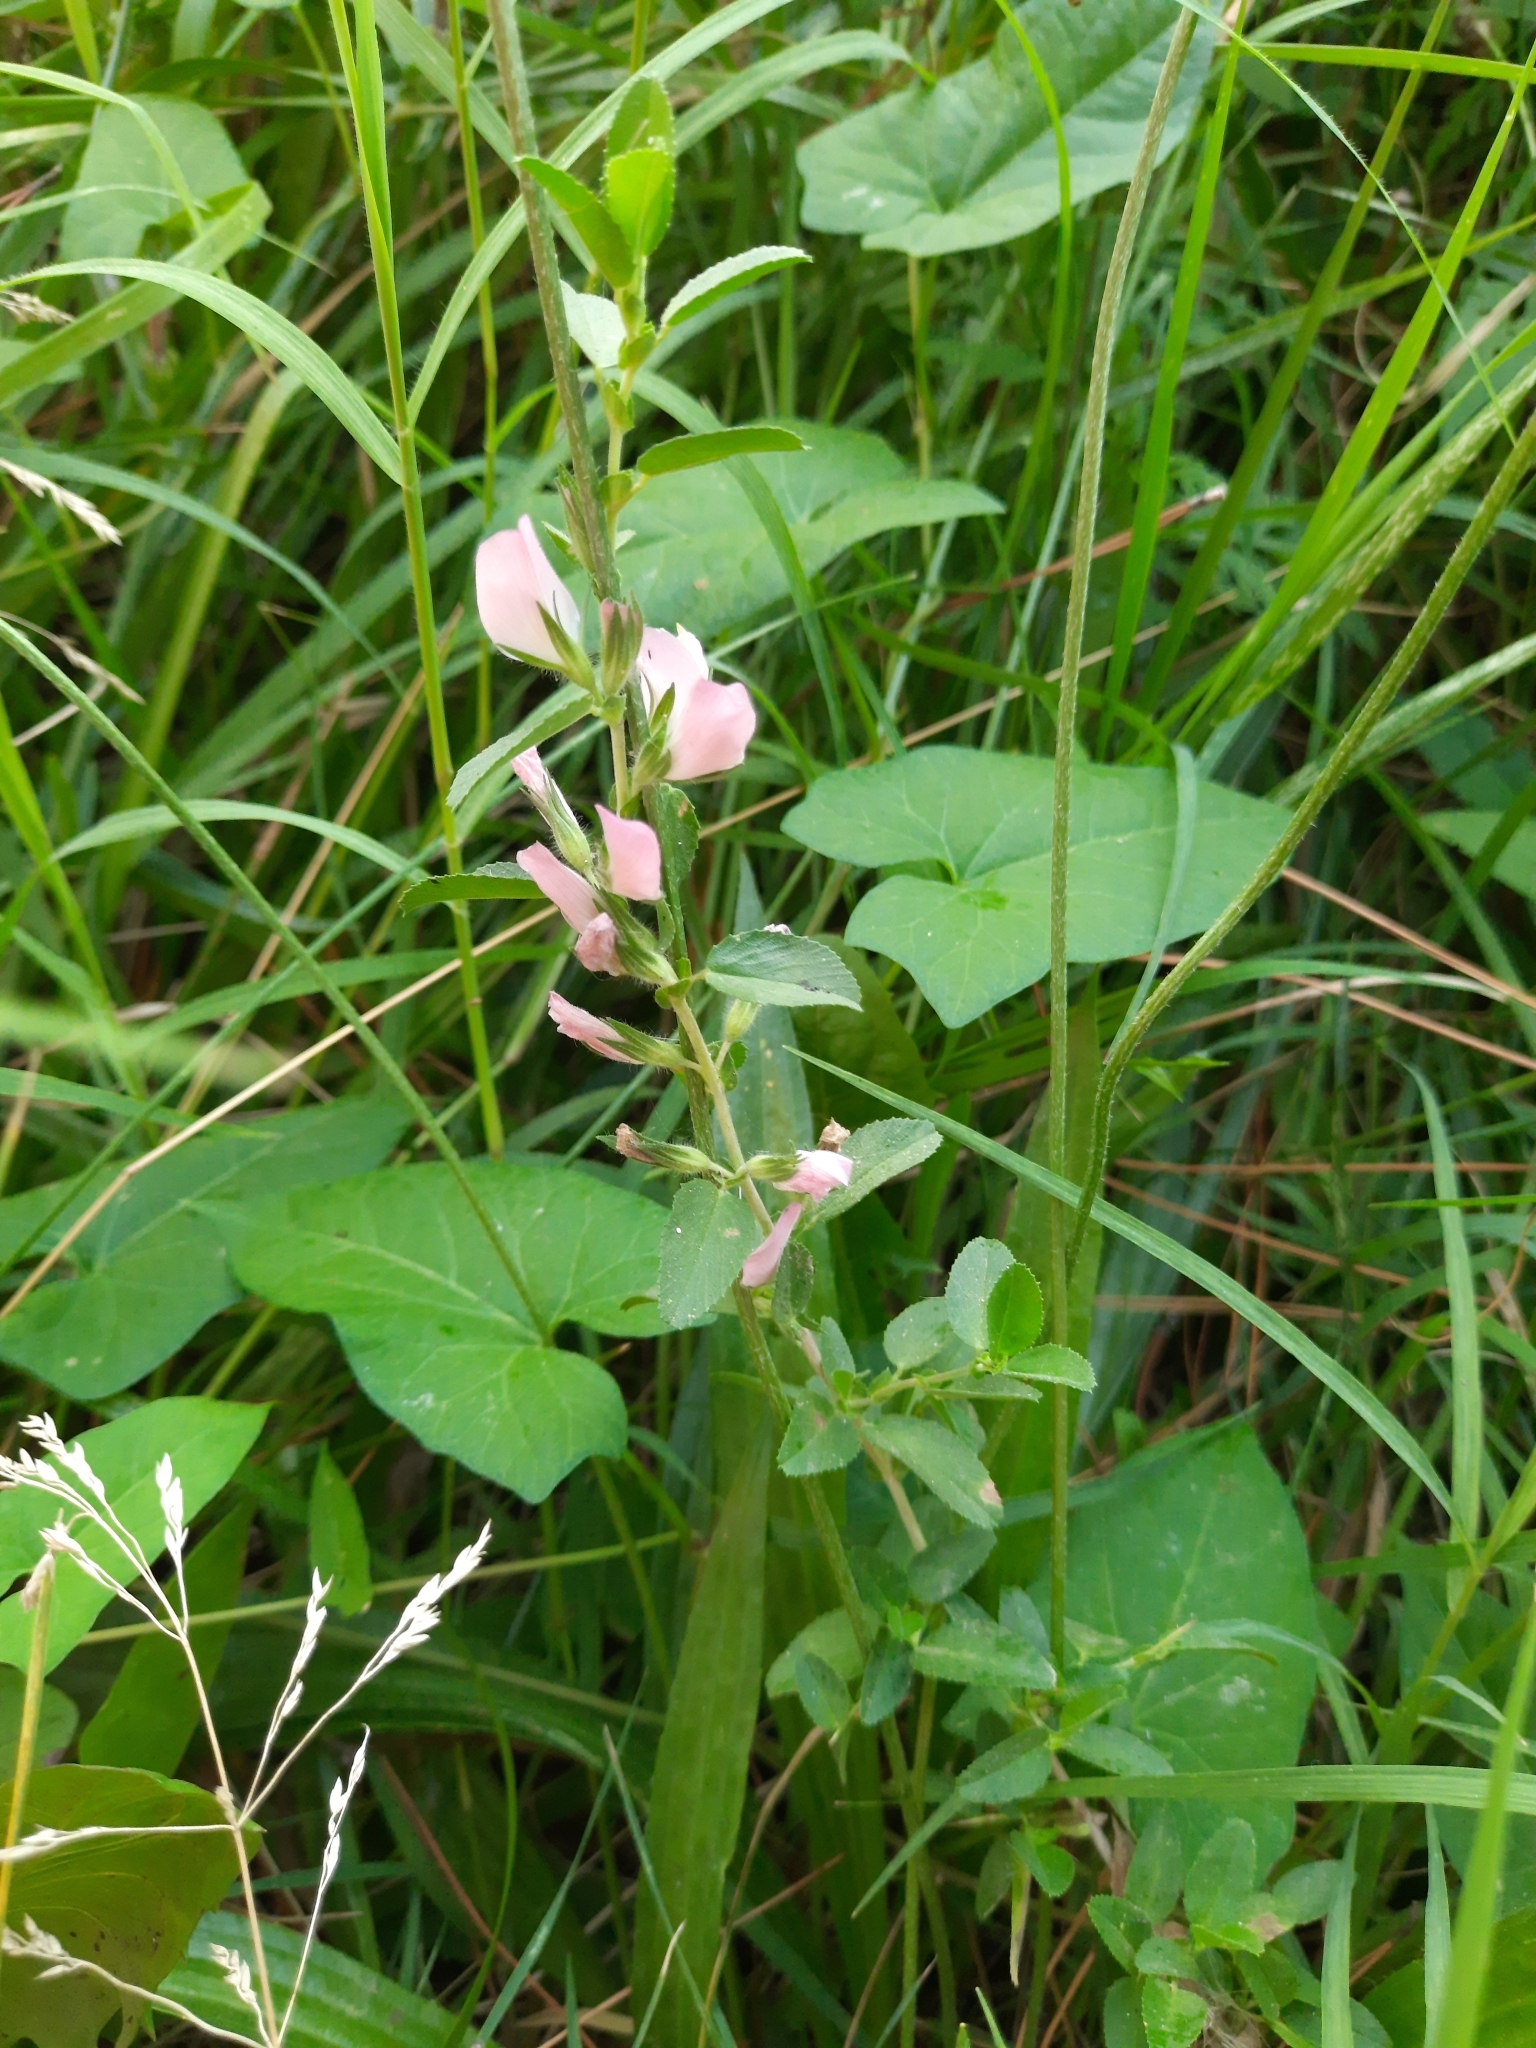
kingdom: Plantae
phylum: Tracheophyta
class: Magnoliopsida
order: Fabales
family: Fabaceae
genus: Ononis
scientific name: Ononis arvensis
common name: Field restharrow
